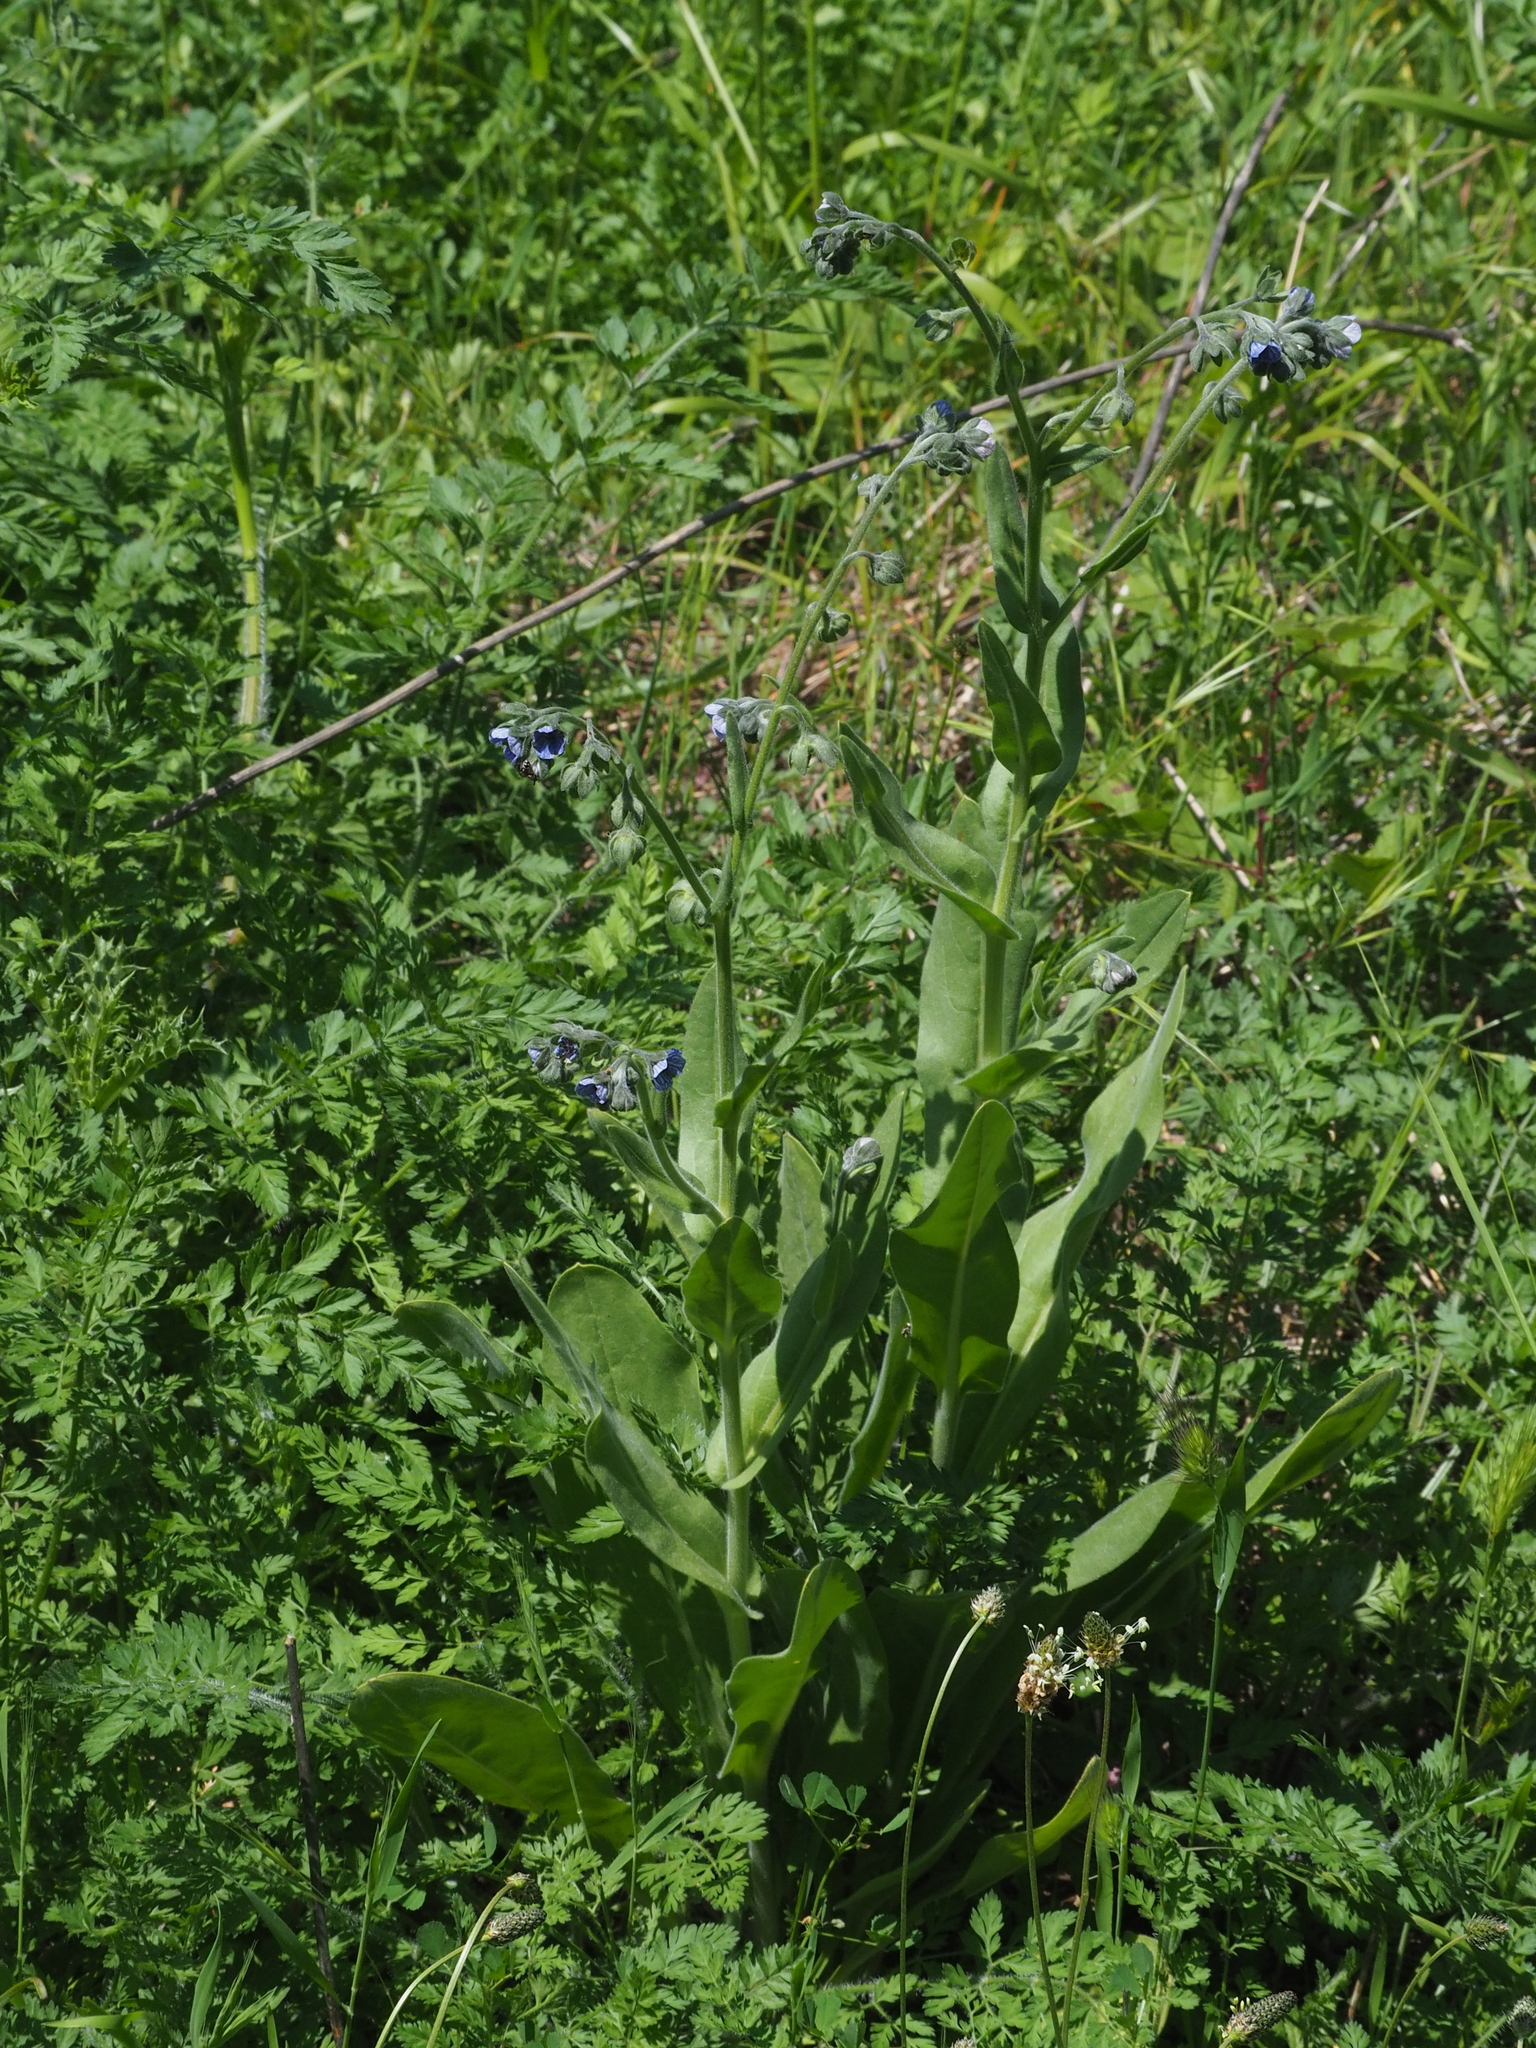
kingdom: Plantae
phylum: Tracheophyta
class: Magnoliopsida
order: Boraginales
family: Boraginaceae
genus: Cynoglossum
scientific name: Cynoglossum creticum
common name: Blue hound's tongue
